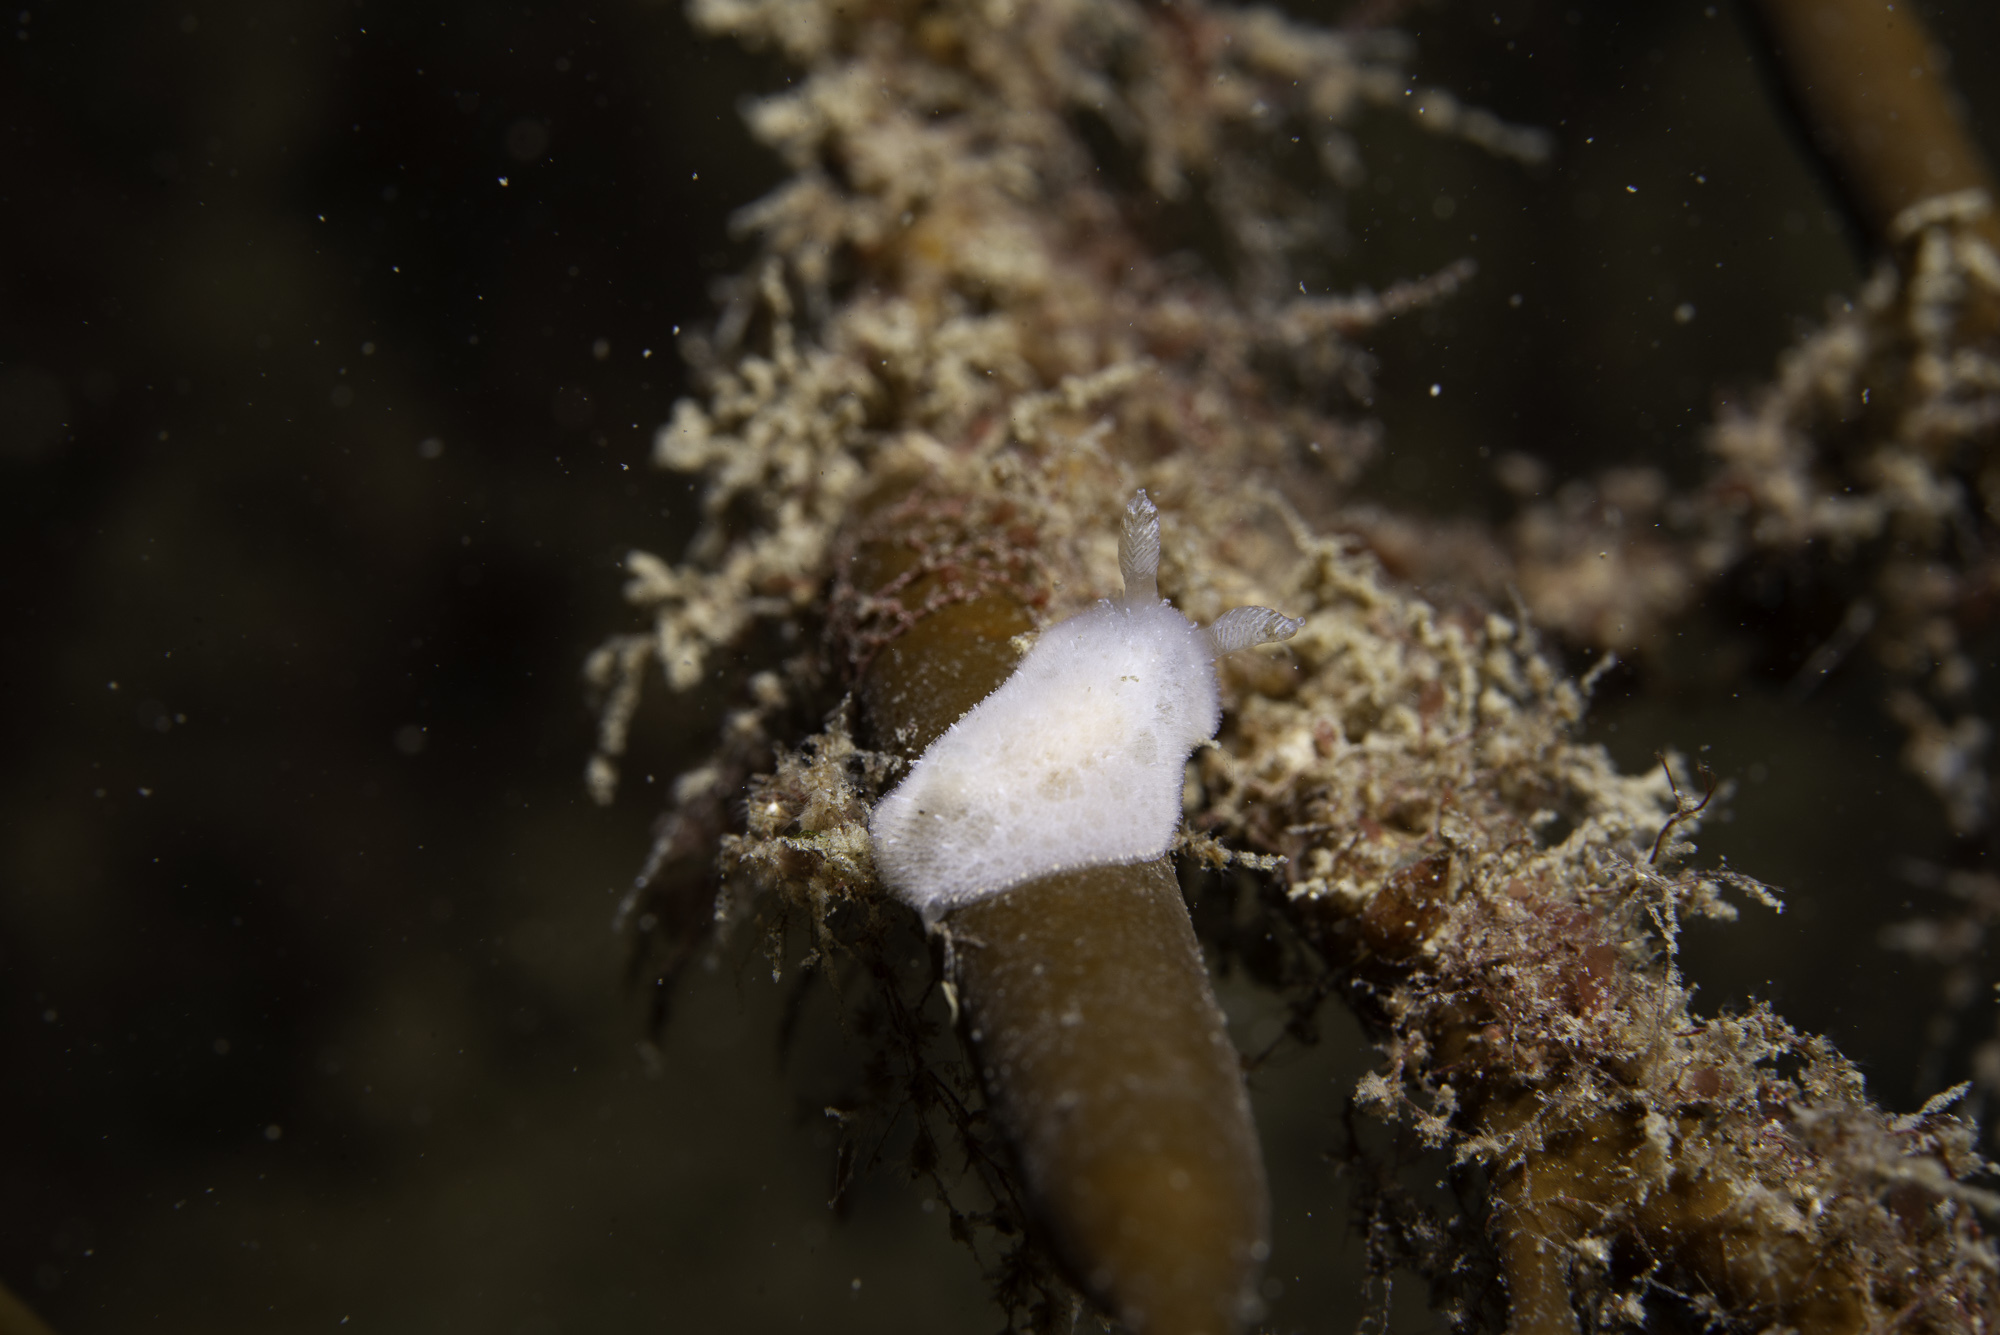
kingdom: Animalia
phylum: Mollusca
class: Gastropoda
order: Nudibranchia
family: Discodorididae
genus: Jorunna
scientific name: Jorunna tomentosa
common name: Grey sea slug
